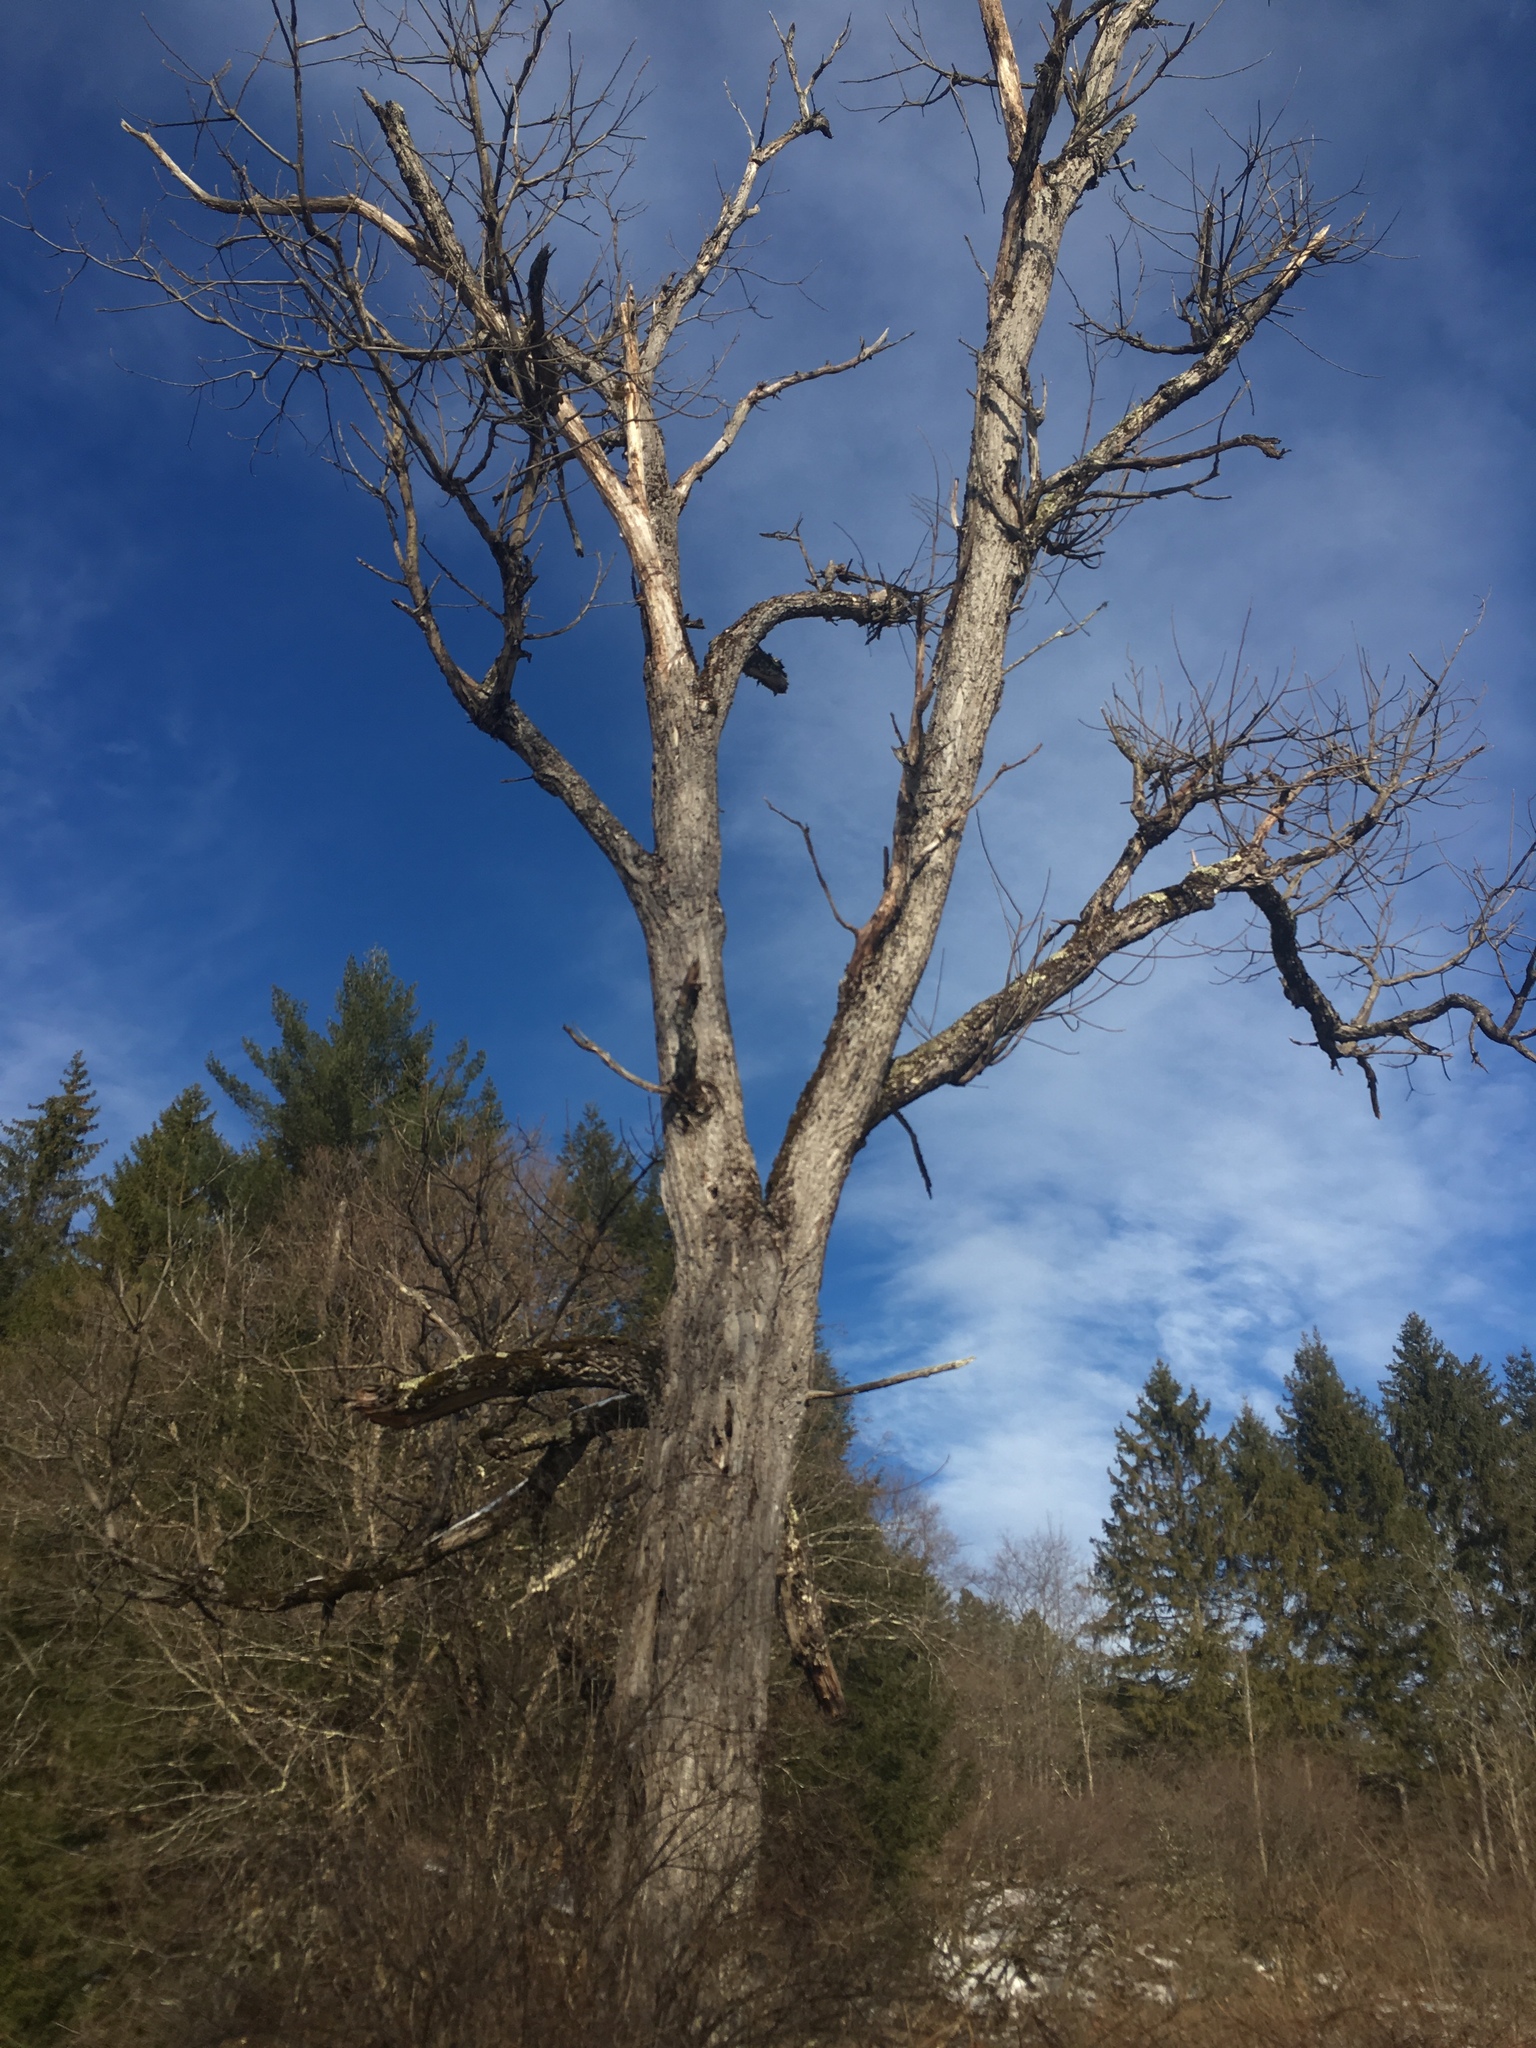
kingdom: Plantae
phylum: Tracheophyta
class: Magnoliopsida
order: Fagales
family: Juglandaceae
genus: Juglans
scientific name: Juglans cinerea
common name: Butternut
